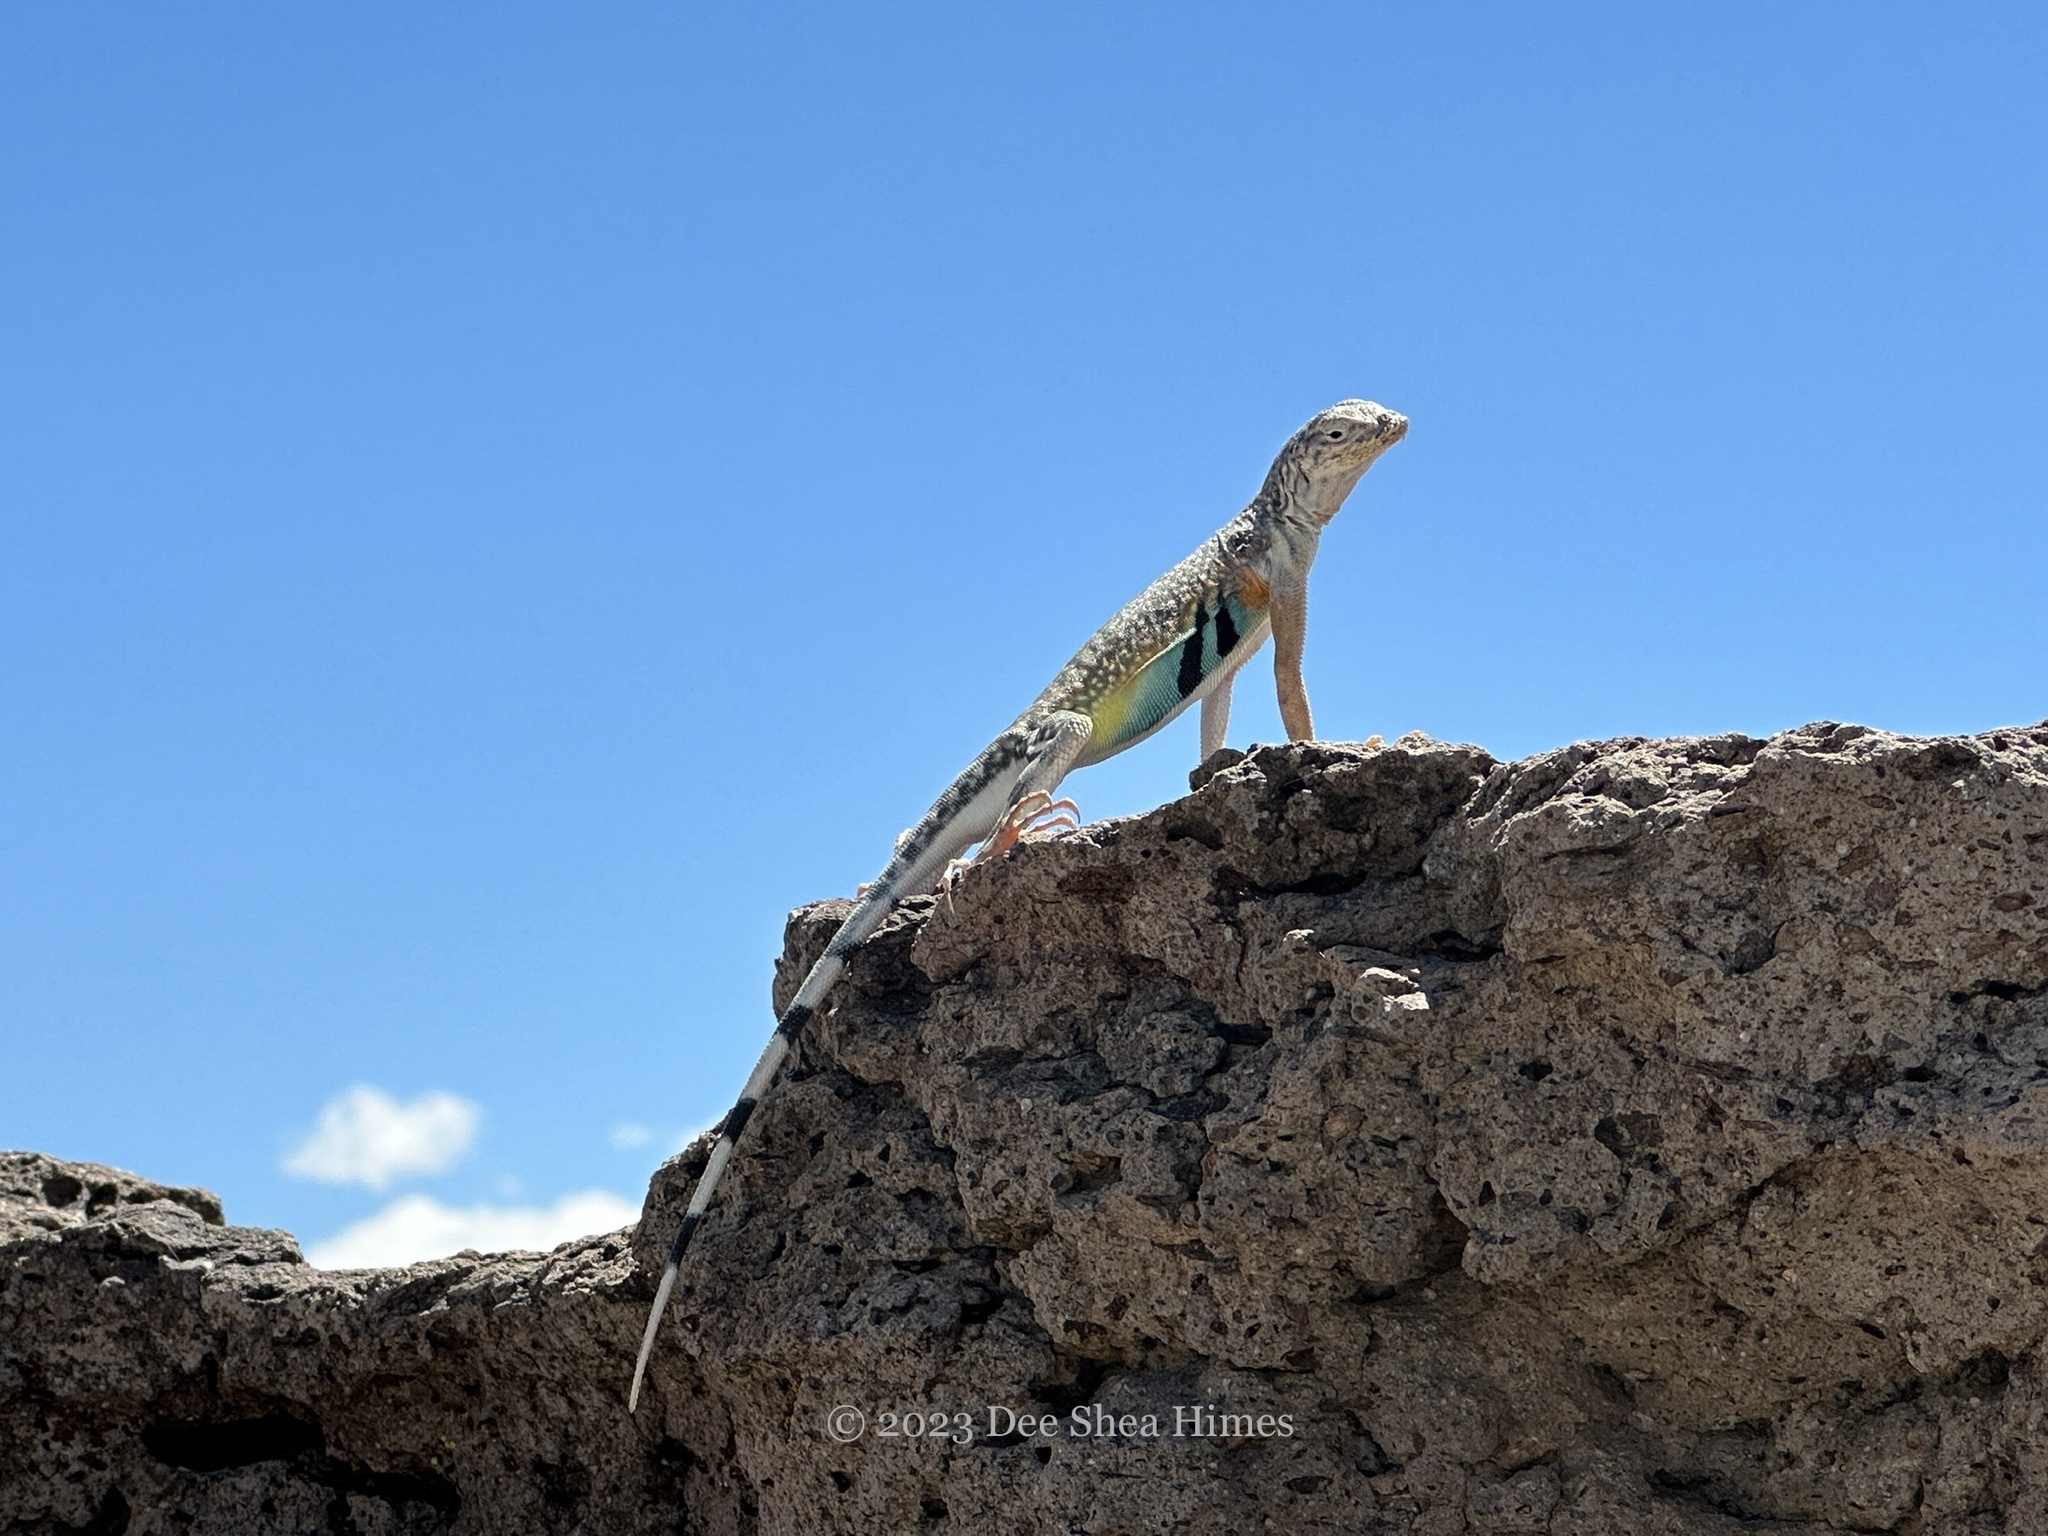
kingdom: Animalia
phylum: Chordata
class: Squamata
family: Phrynosomatidae
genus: Callisaurus
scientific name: Callisaurus draconoides
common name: Zebra-tailed lizard
